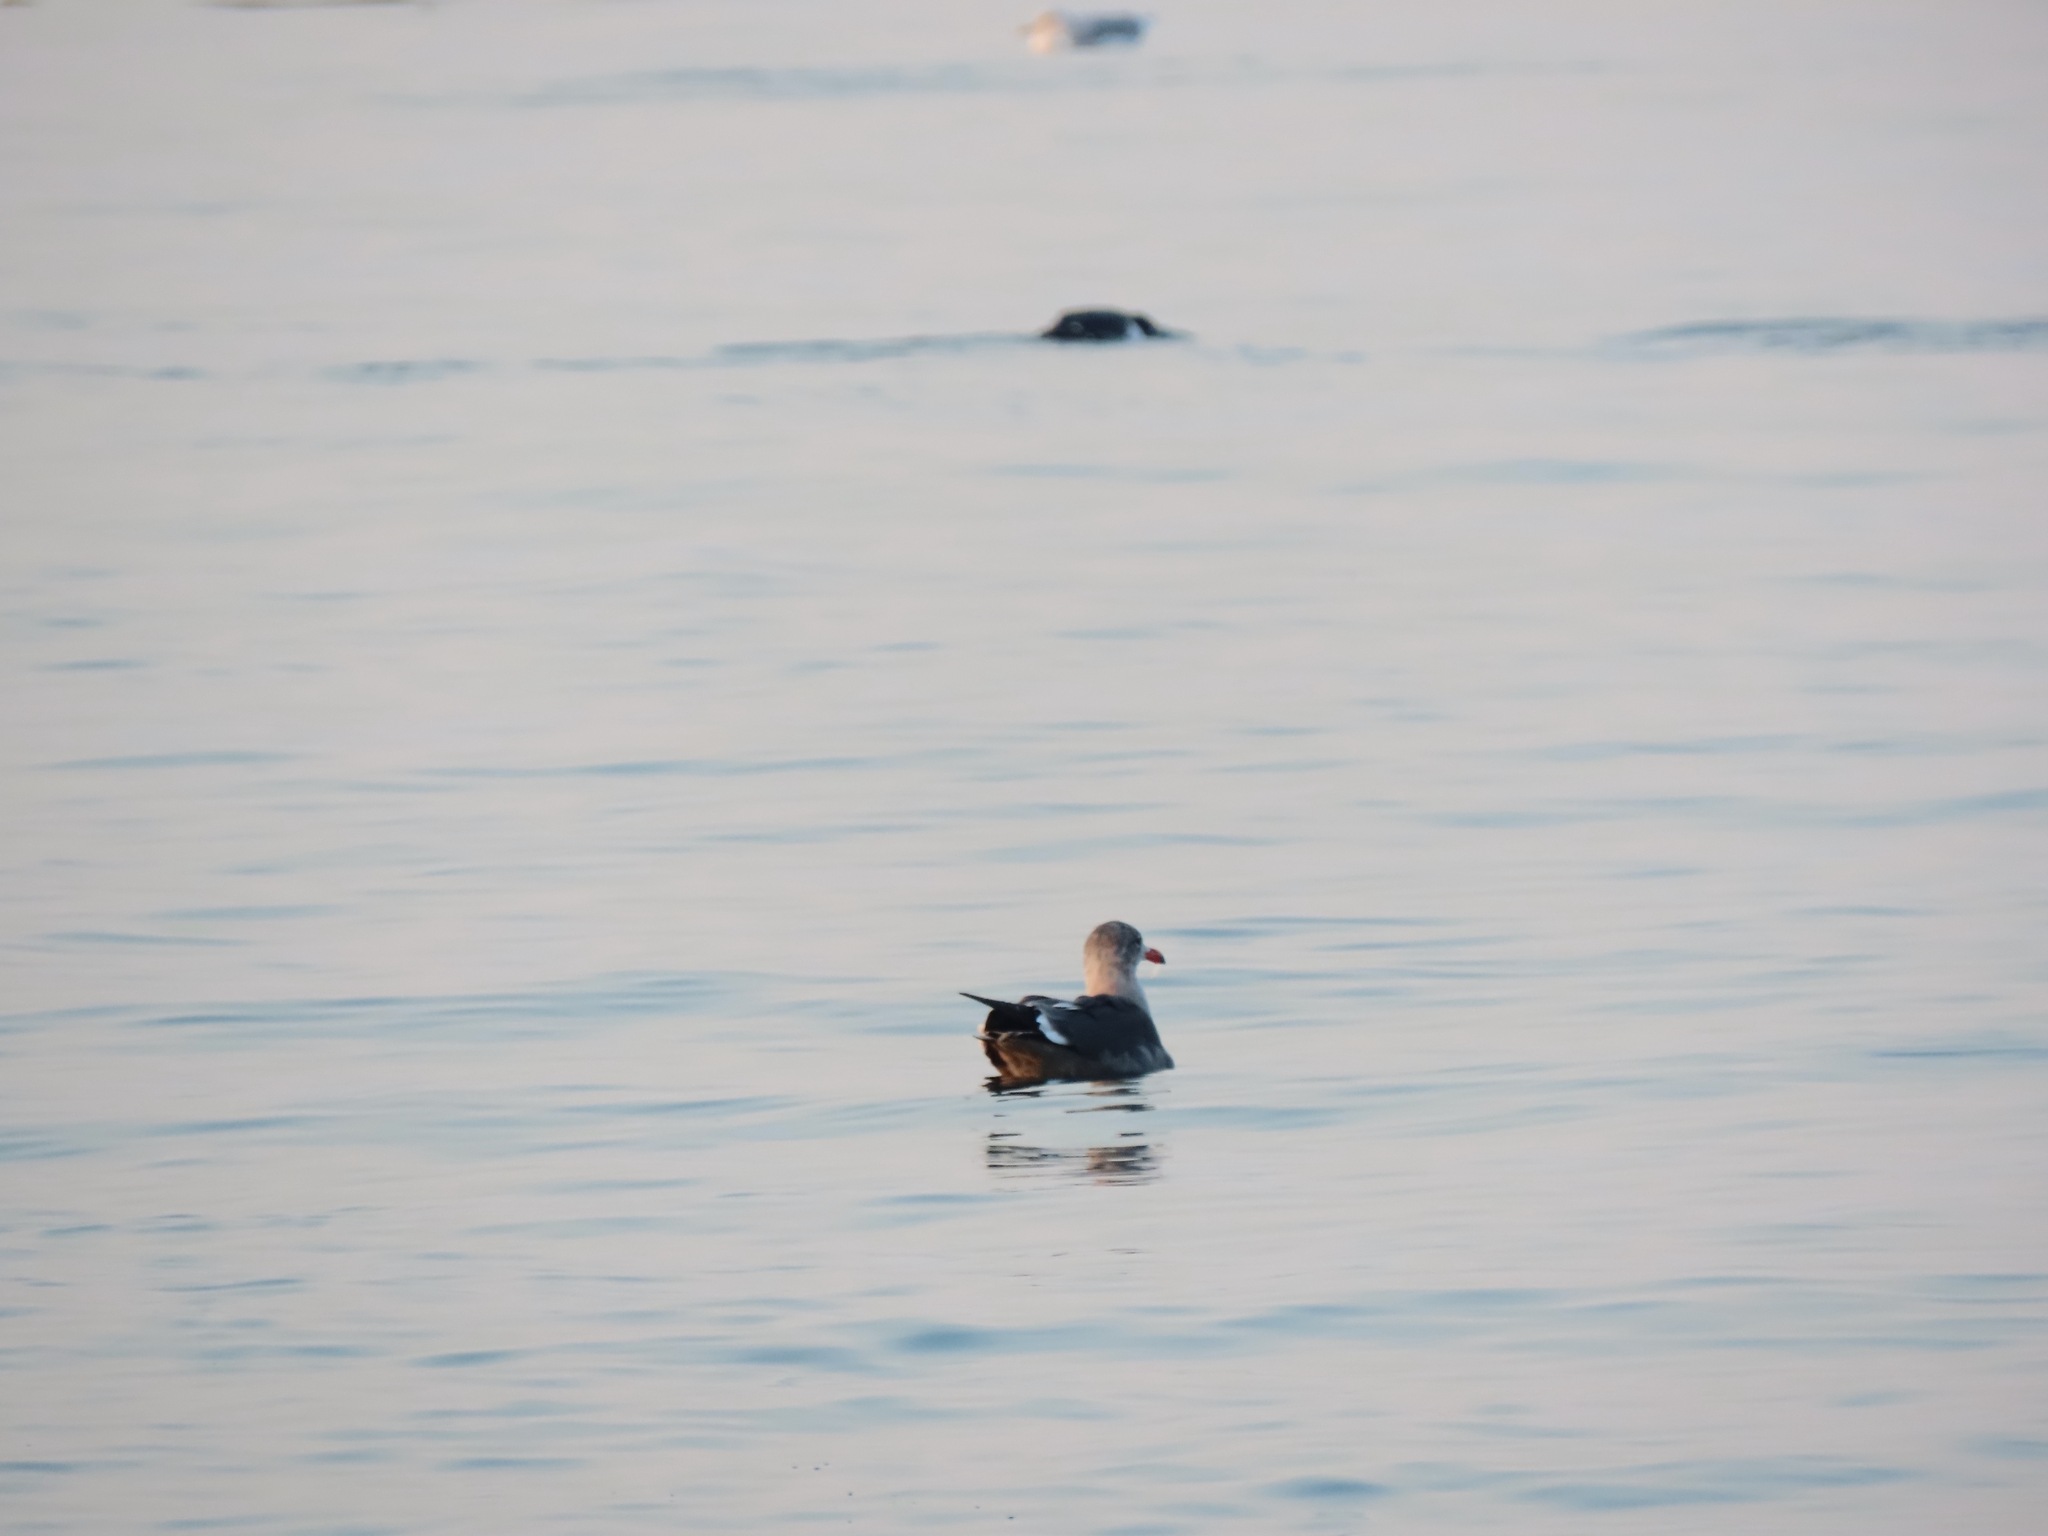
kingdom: Animalia
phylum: Chordata
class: Aves
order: Charadriiformes
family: Laridae
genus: Larus
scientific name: Larus heermanni
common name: Heermann's gull
